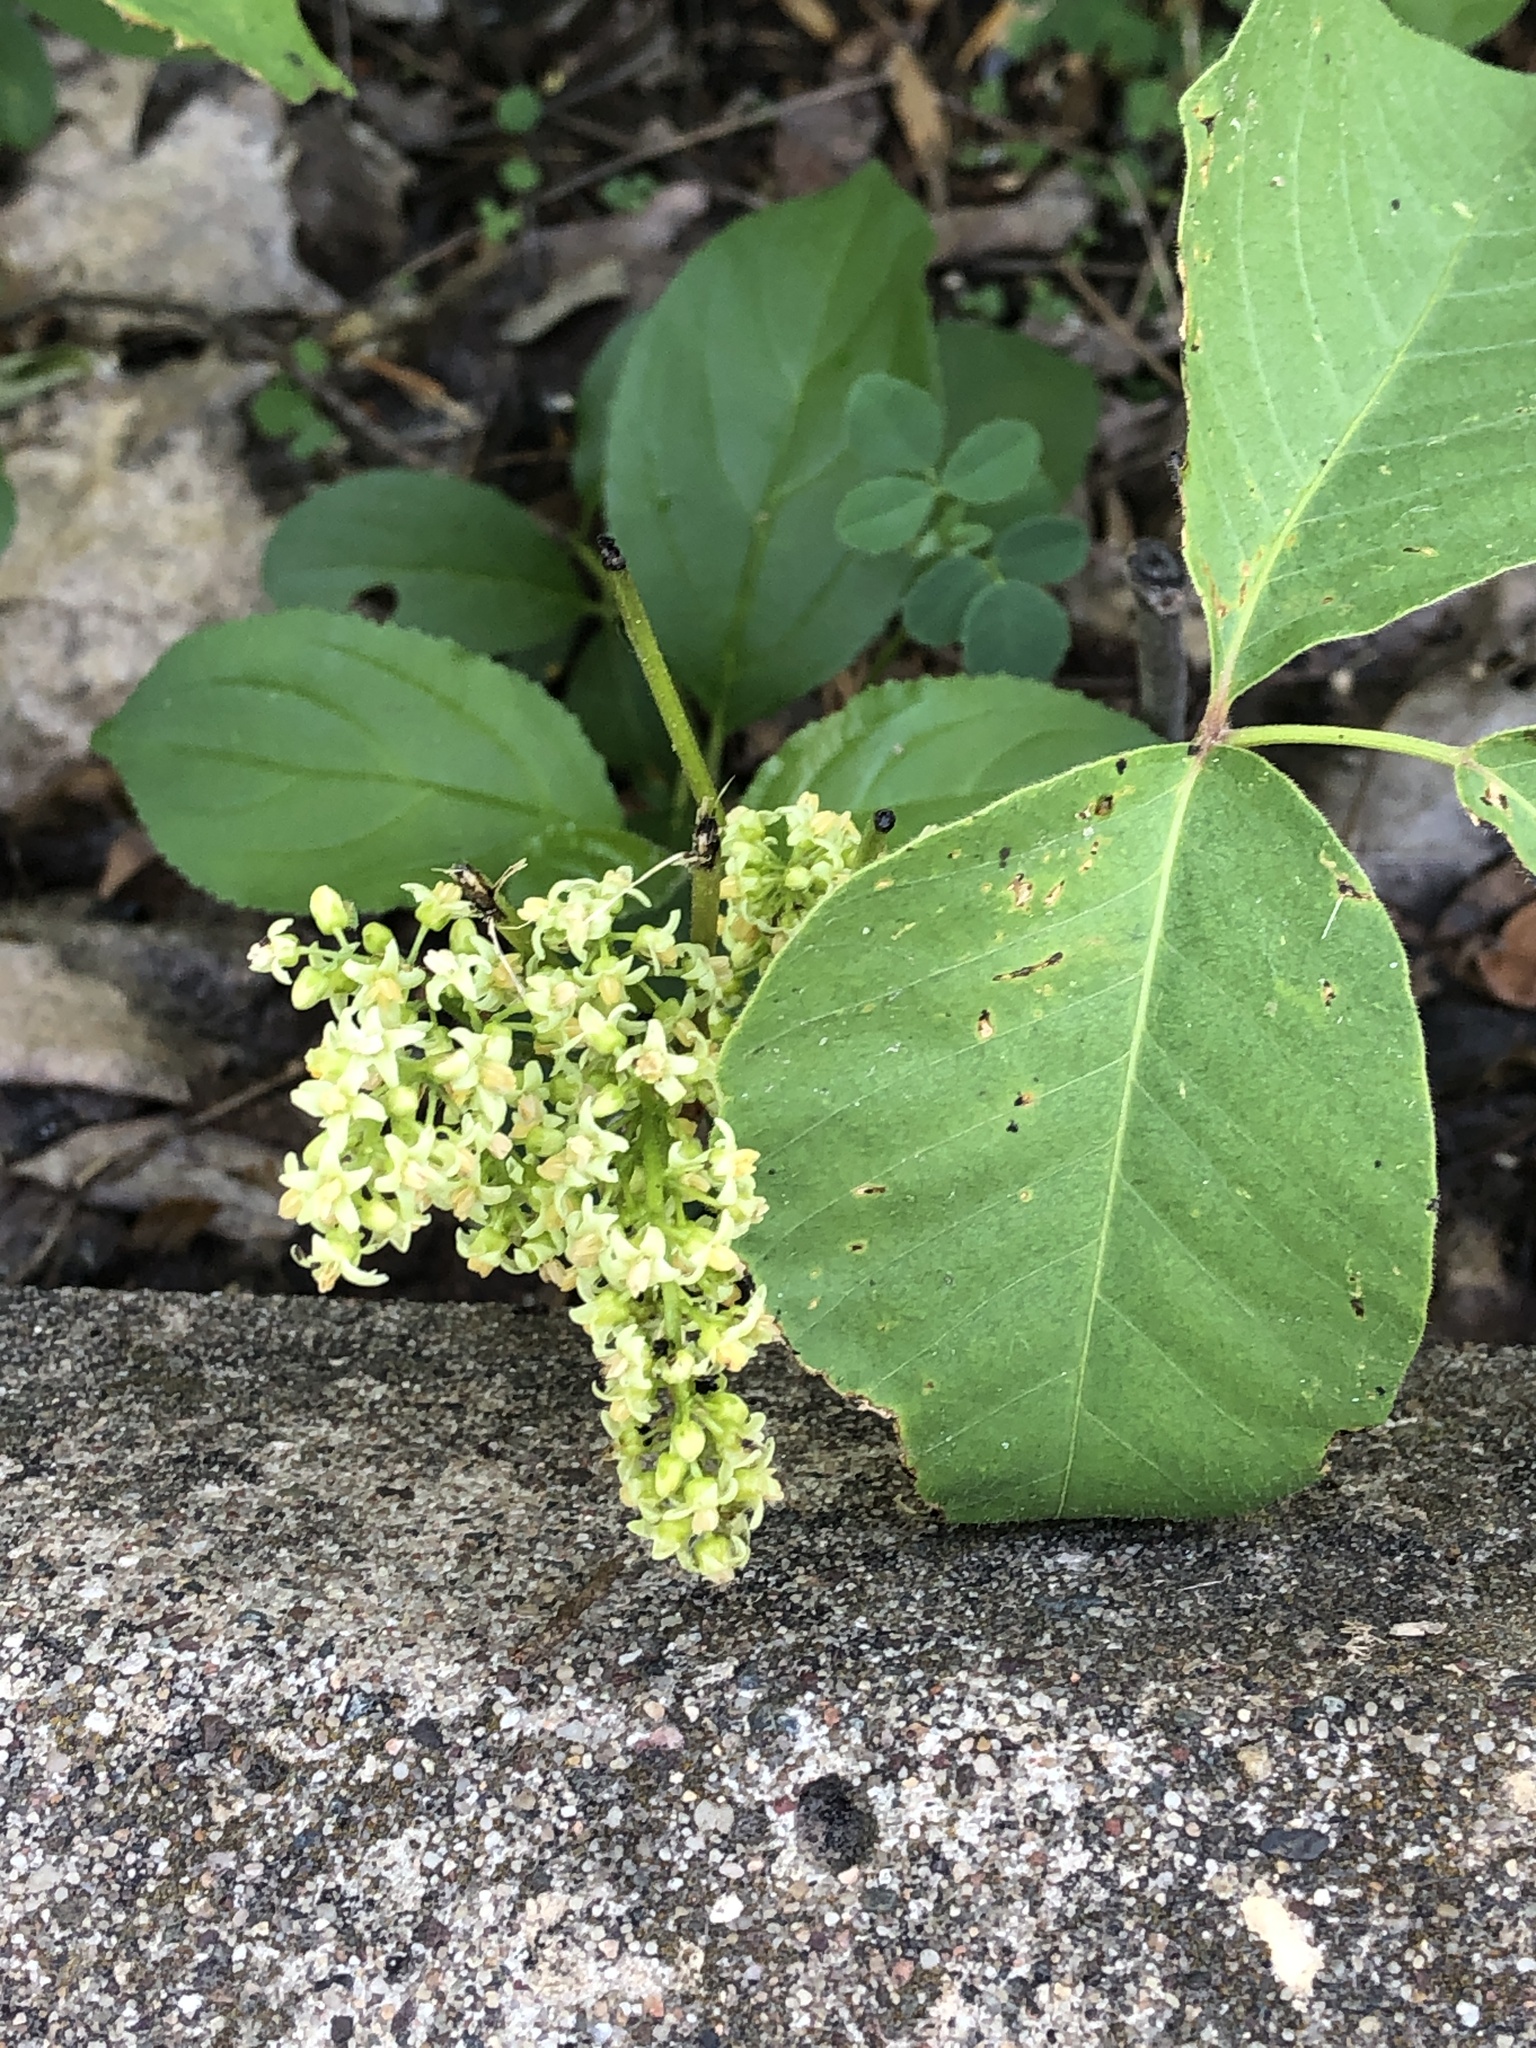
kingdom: Plantae
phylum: Tracheophyta
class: Magnoliopsida
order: Sapindales
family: Anacardiaceae
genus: Toxicodendron
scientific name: Toxicodendron rydbergii
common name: Rydberg's poison-ivy
